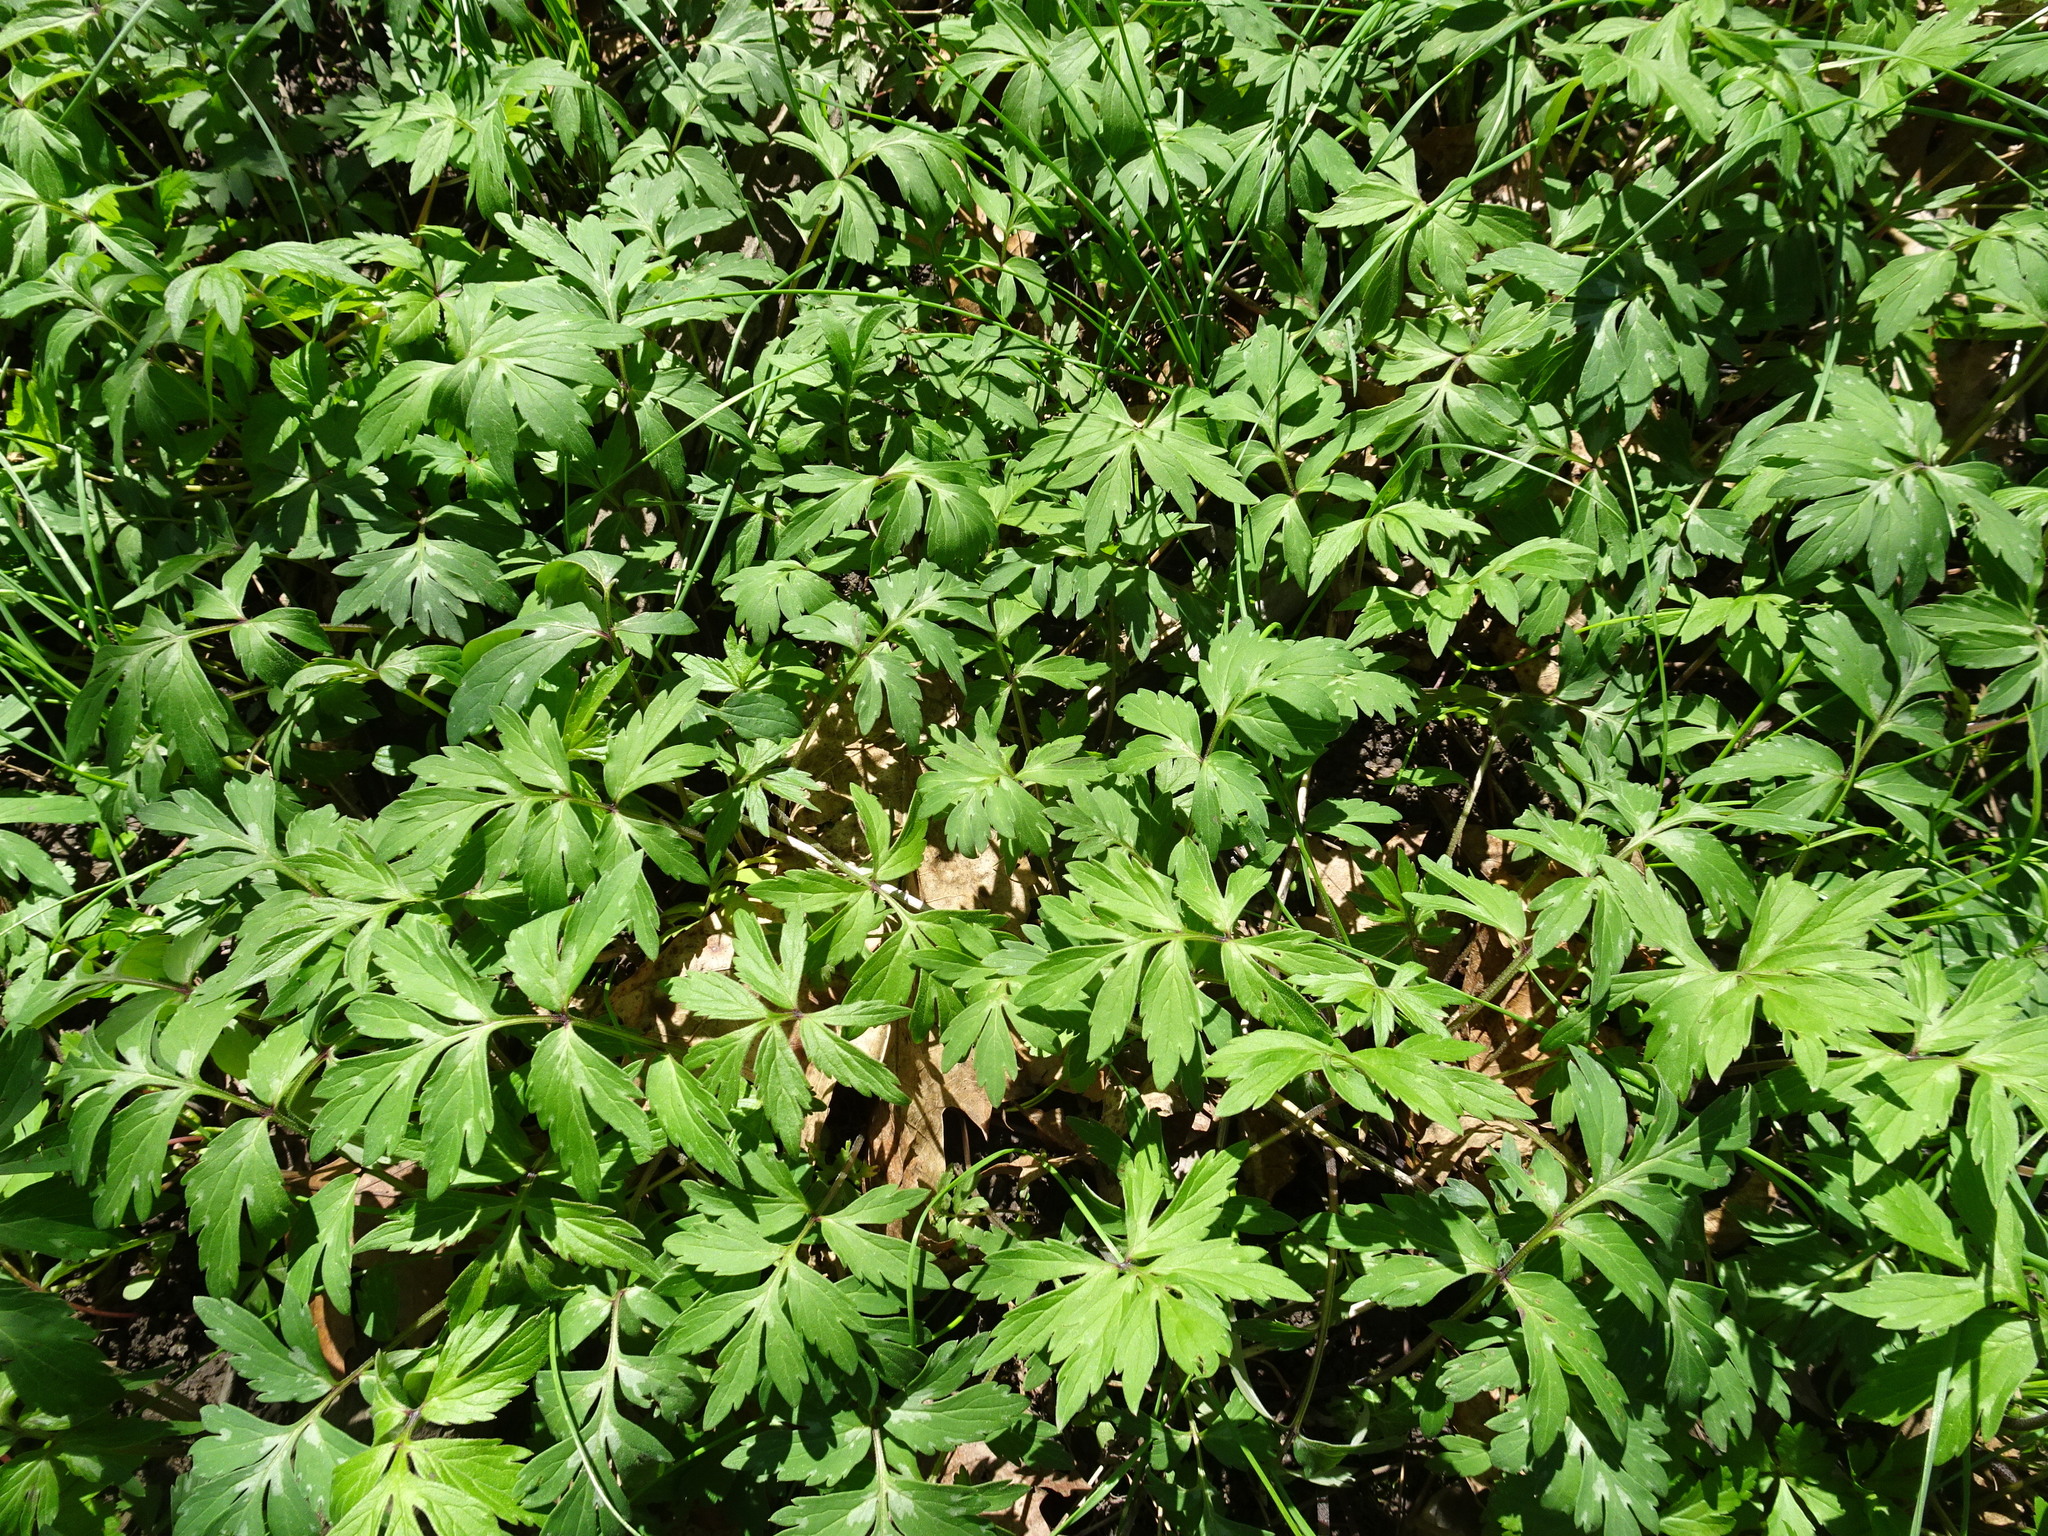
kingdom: Plantae
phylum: Tracheophyta
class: Magnoliopsida
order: Boraginales
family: Hydrophyllaceae
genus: Hydrophyllum
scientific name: Hydrophyllum virginianum
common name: Virginia waterleaf
